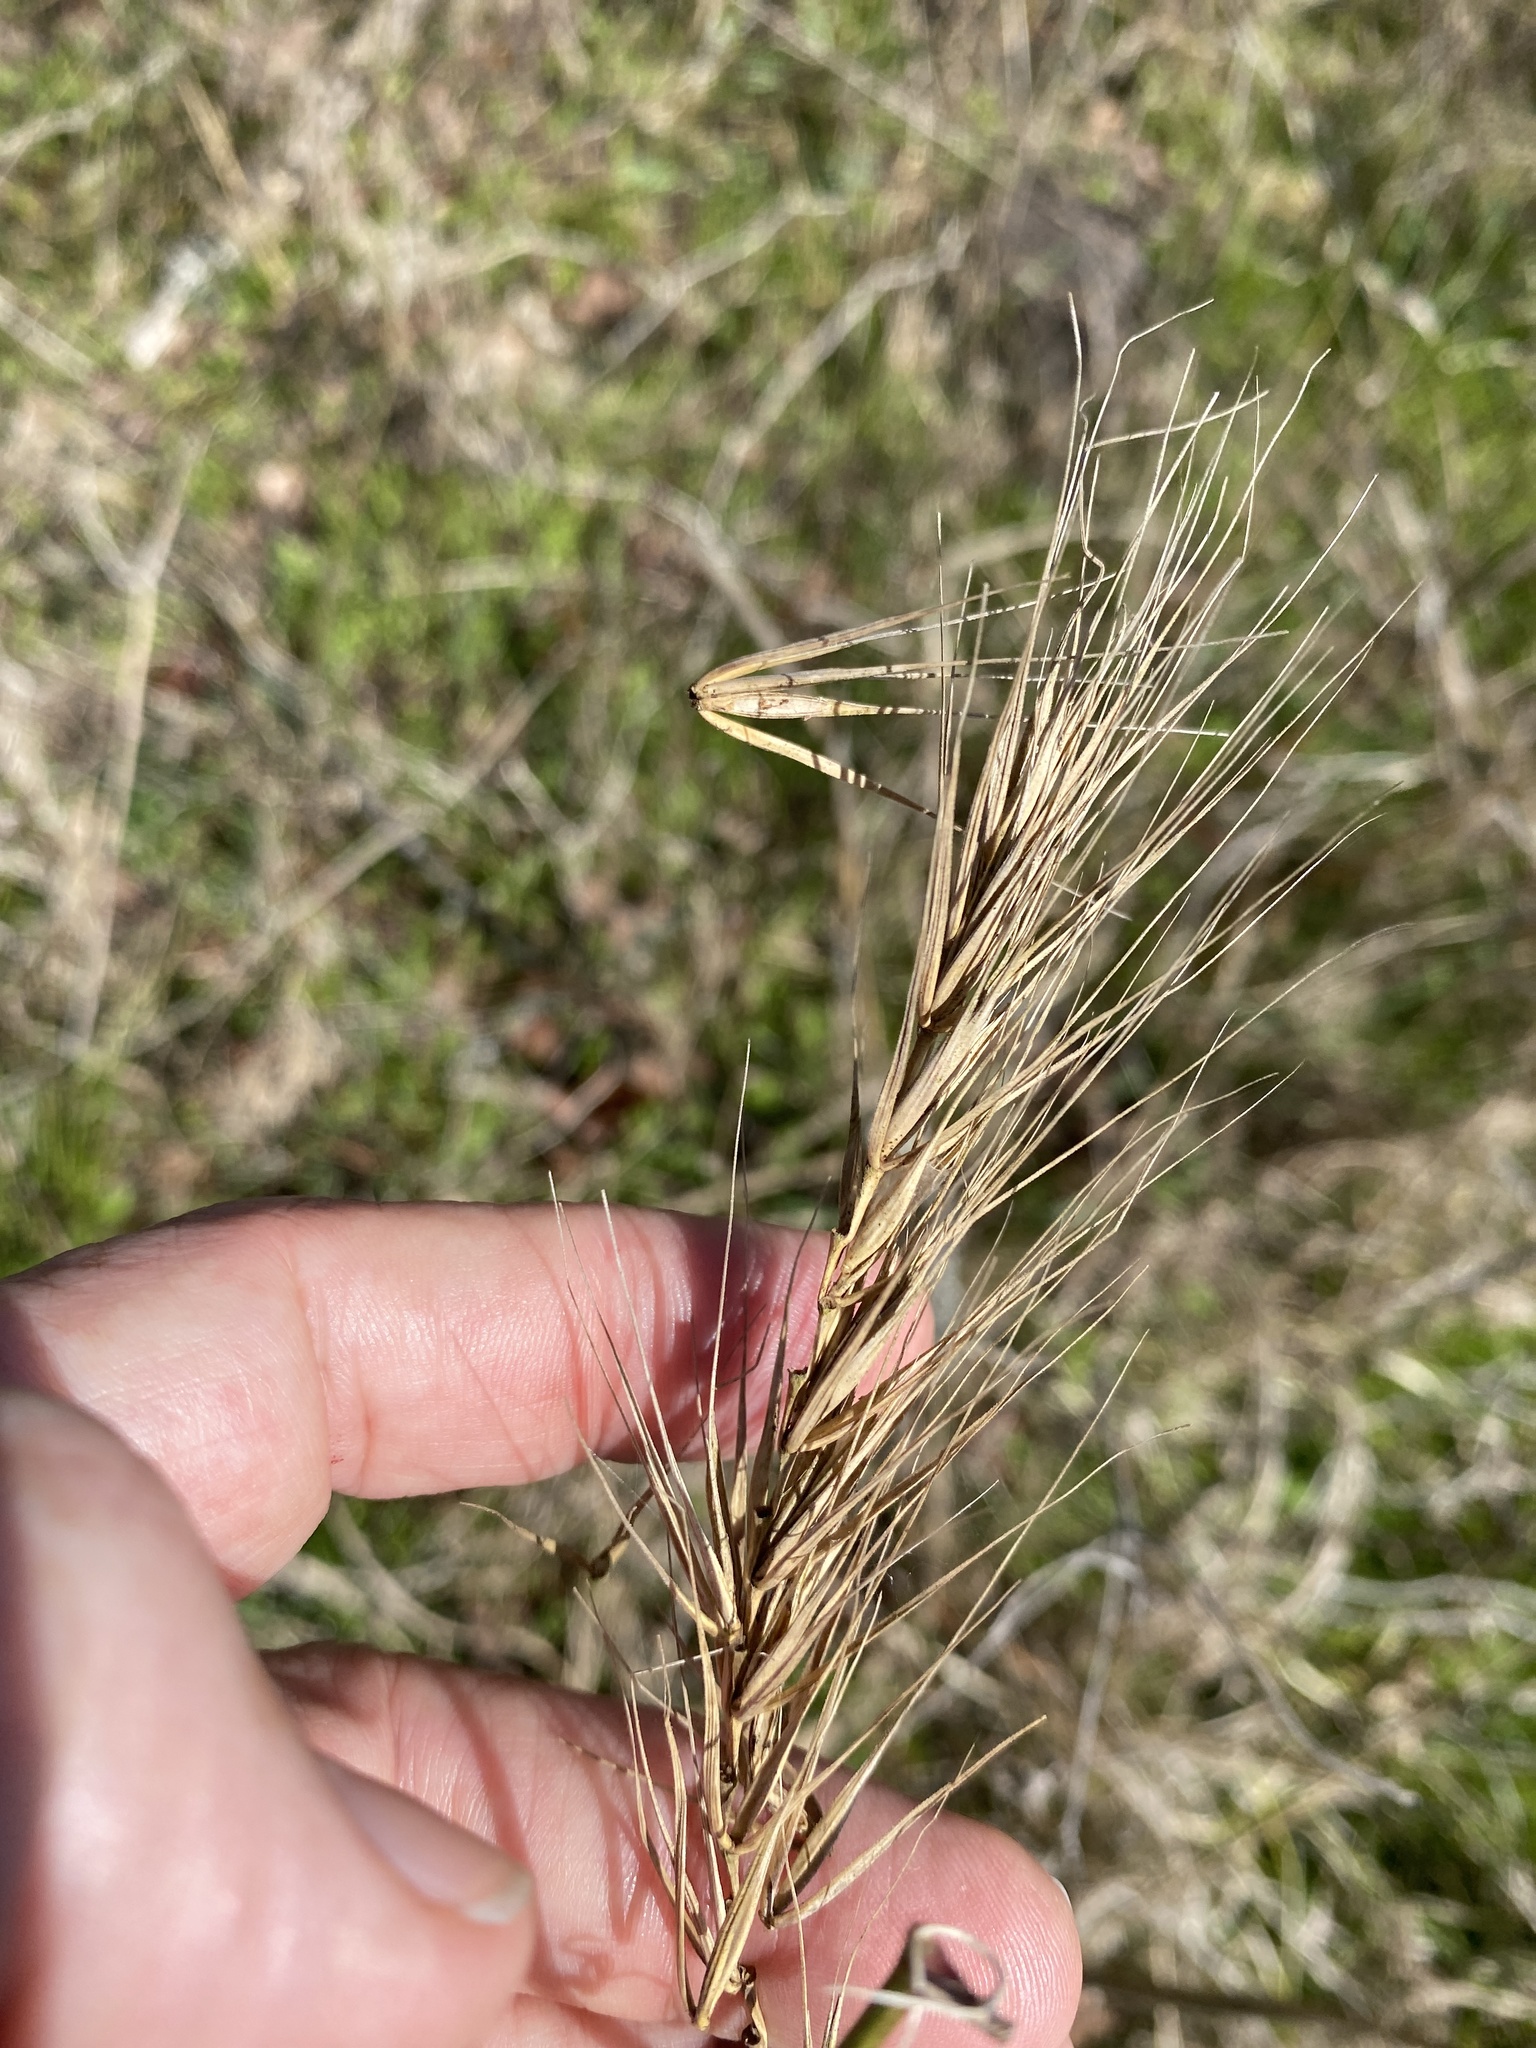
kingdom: Plantae
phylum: Tracheophyta
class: Liliopsida
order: Poales
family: Poaceae
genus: Elymus
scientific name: Elymus virginicus
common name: Common eastern wildrye
